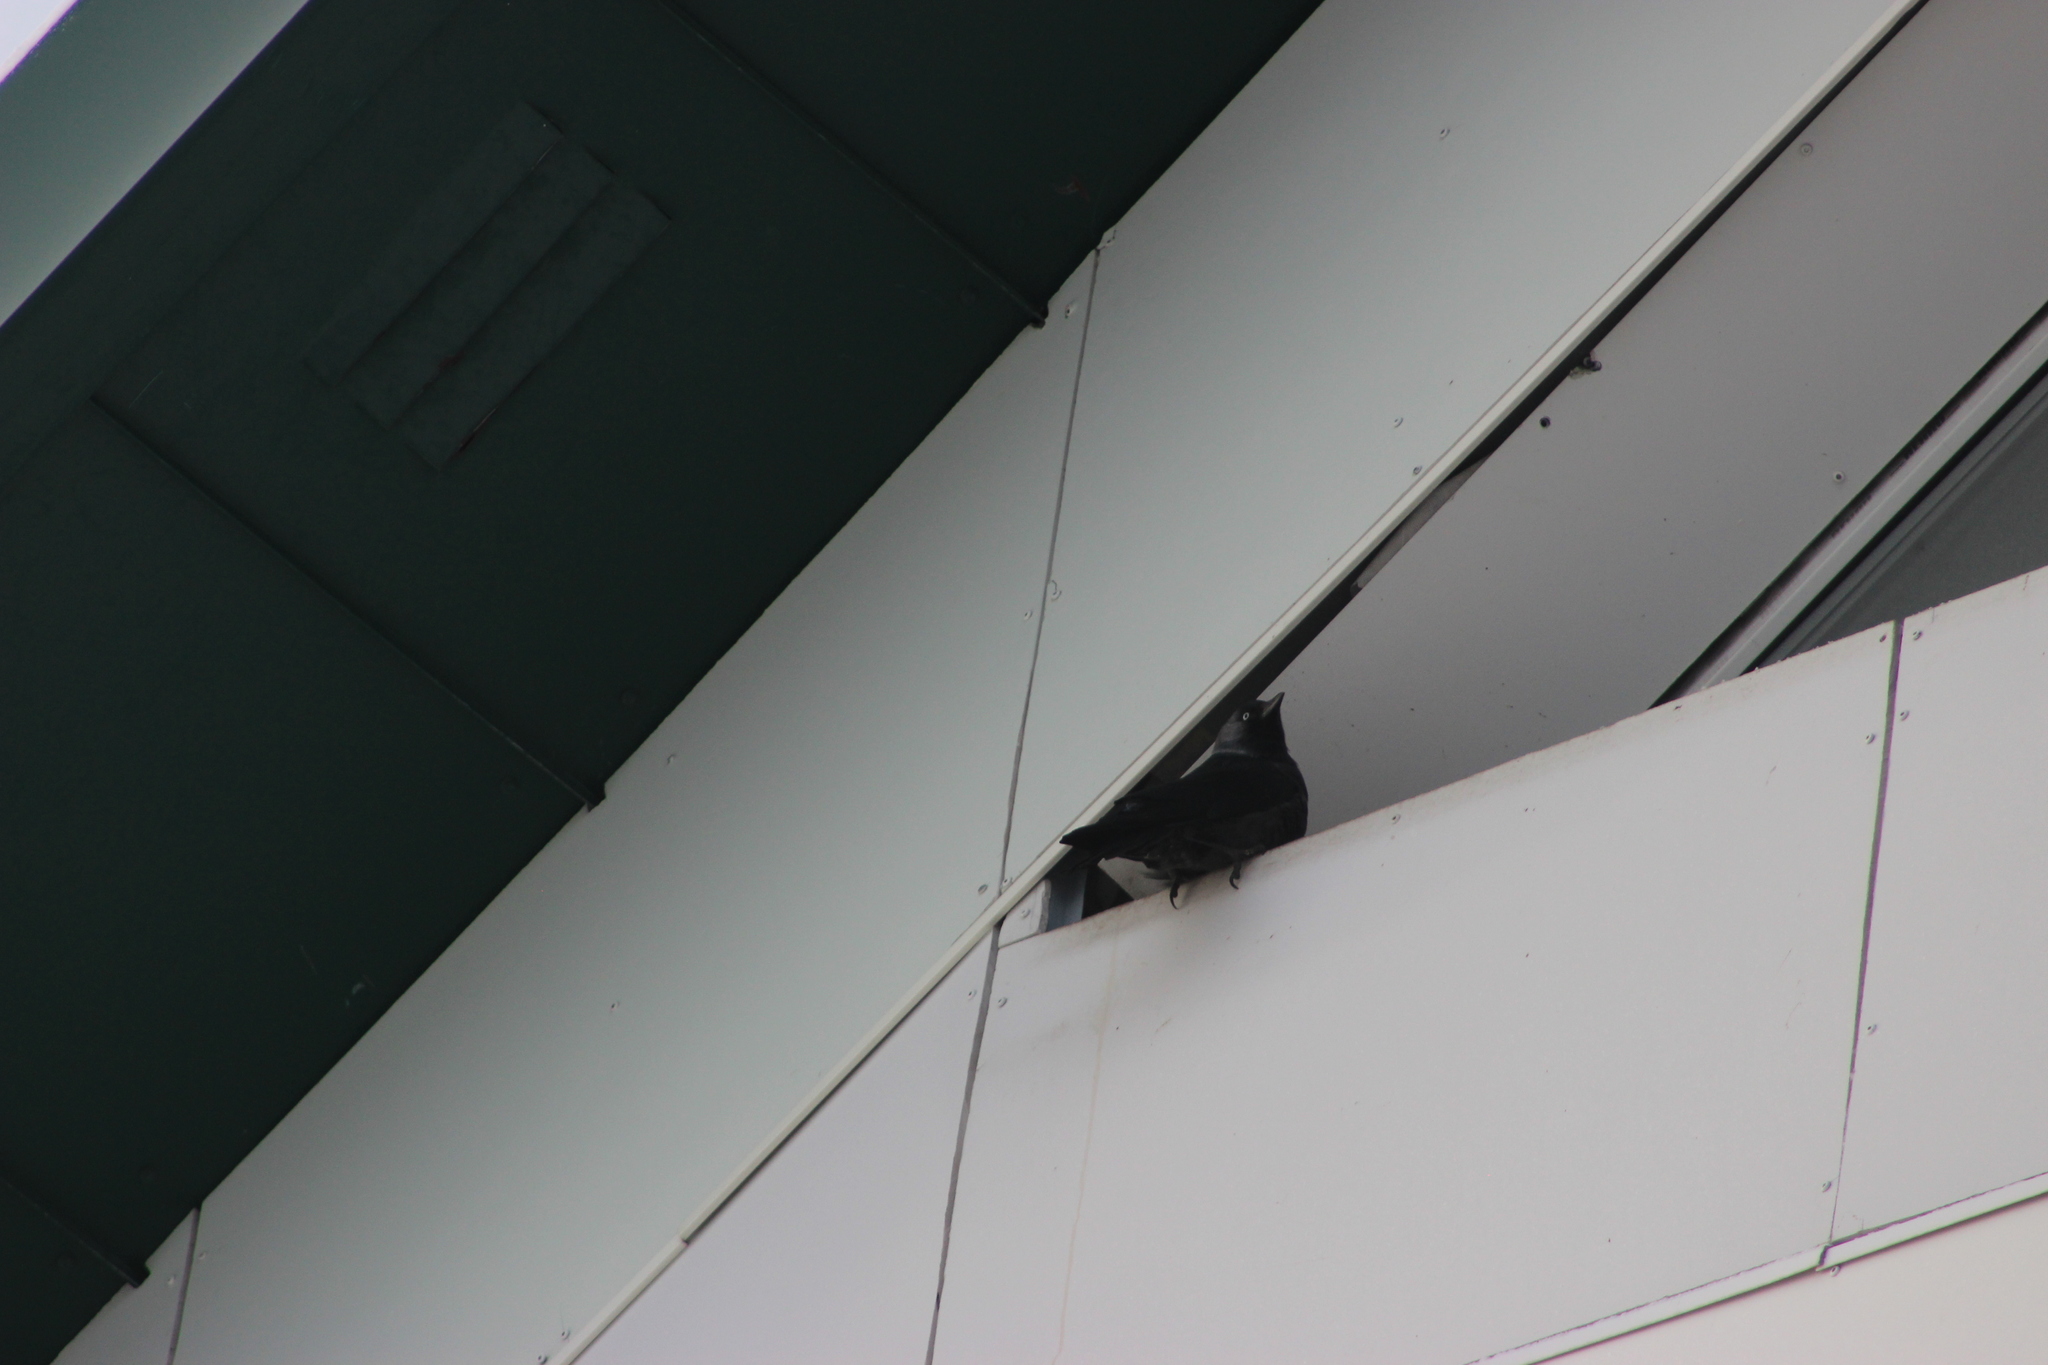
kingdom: Animalia
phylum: Chordata
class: Aves
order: Passeriformes
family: Corvidae
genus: Coloeus
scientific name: Coloeus monedula
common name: Western jackdaw
